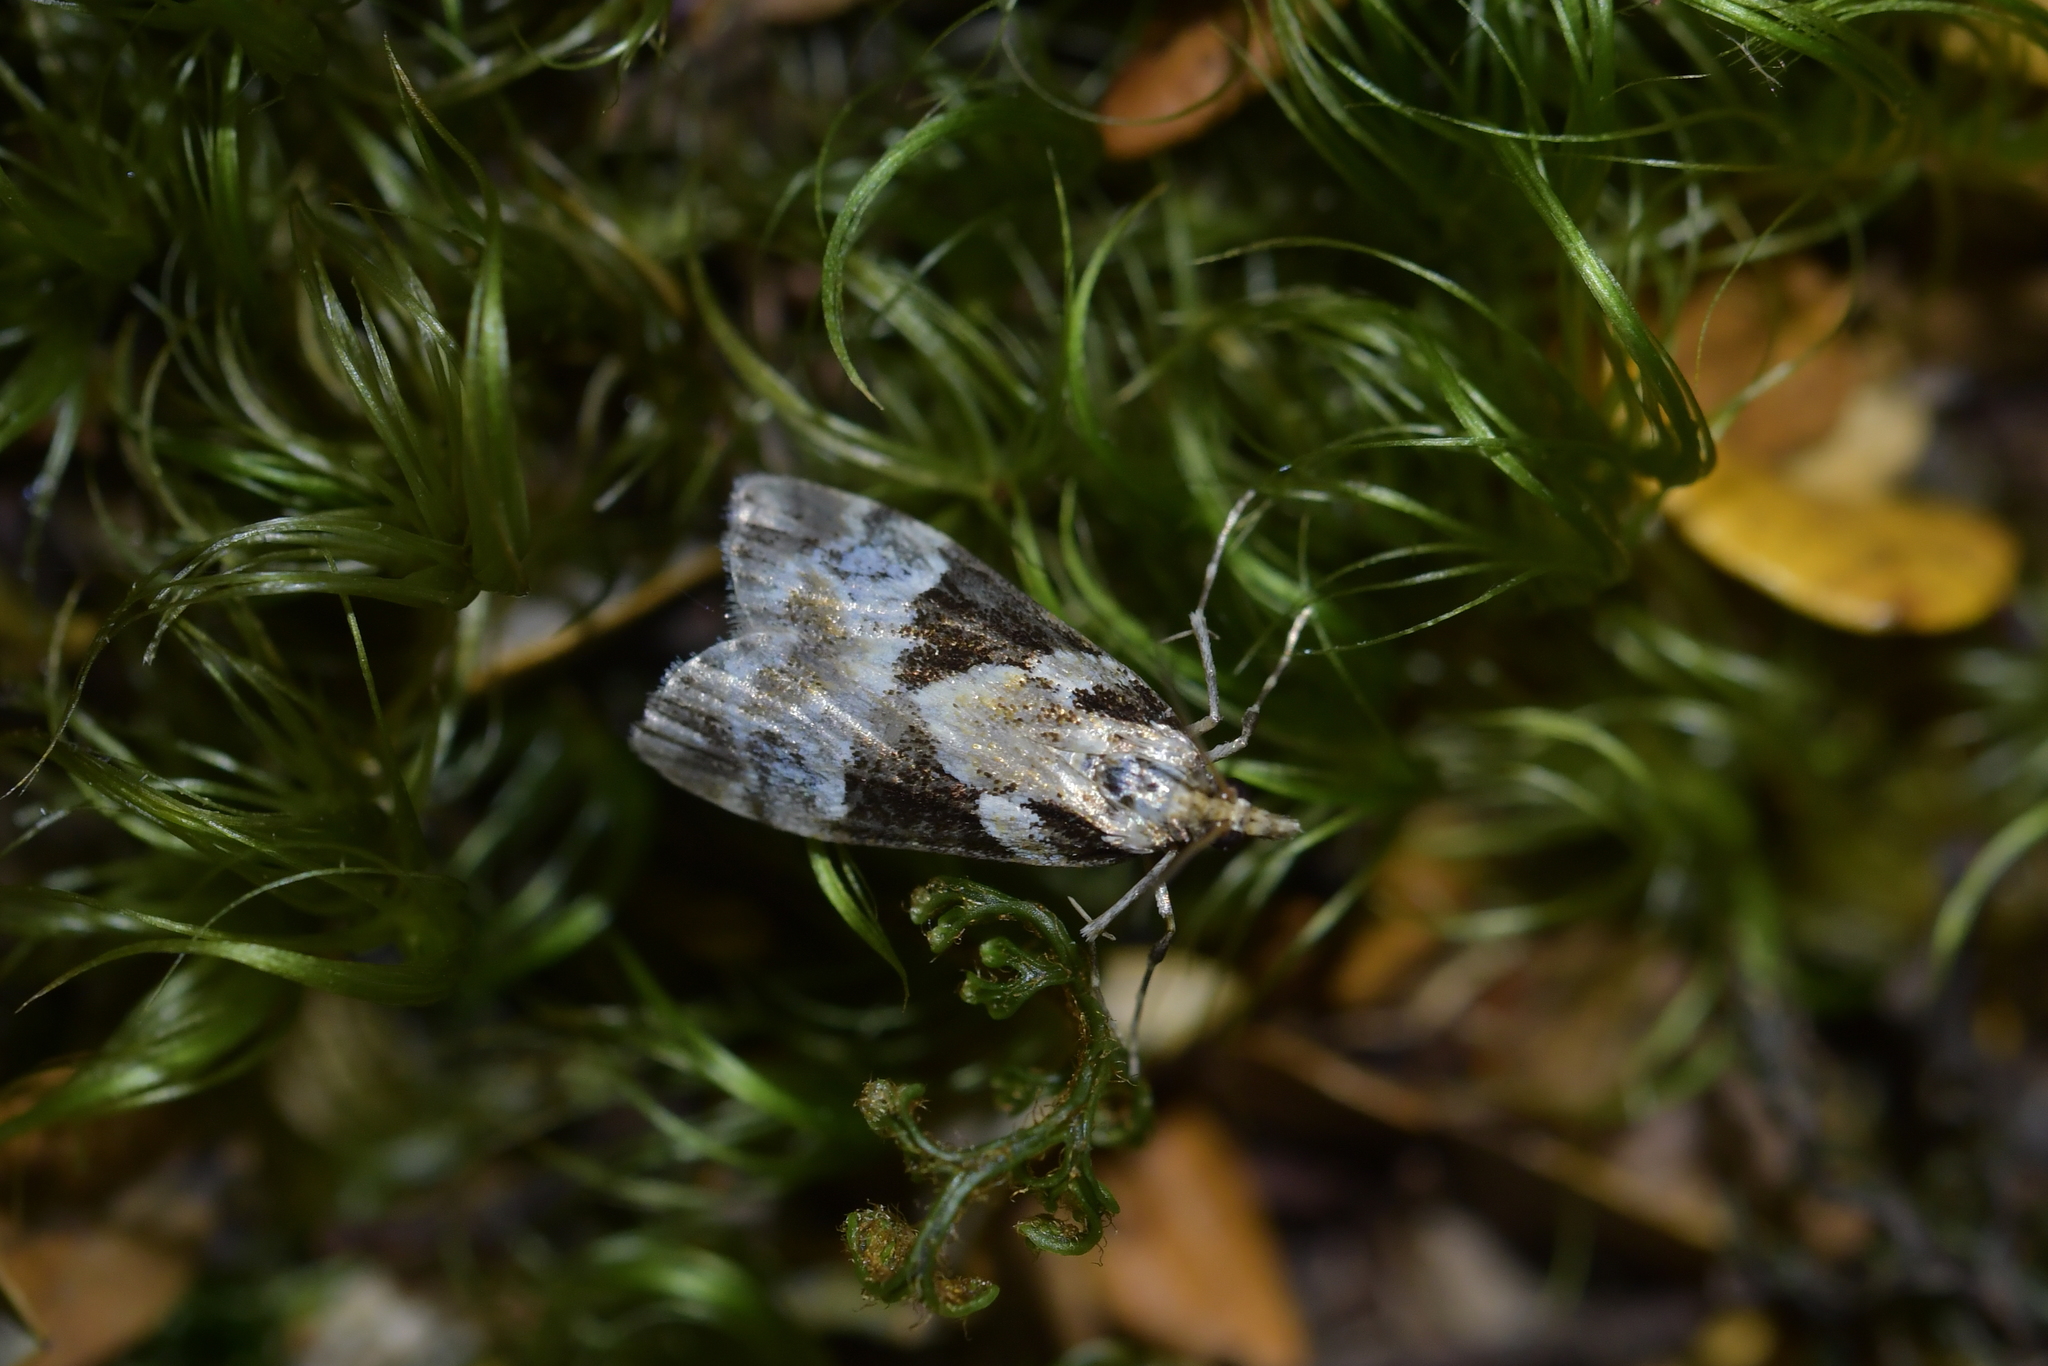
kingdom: Animalia
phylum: Arthropoda
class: Insecta
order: Lepidoptera
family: Crambidae
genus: Eudonia
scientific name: Eudonia aspidota
